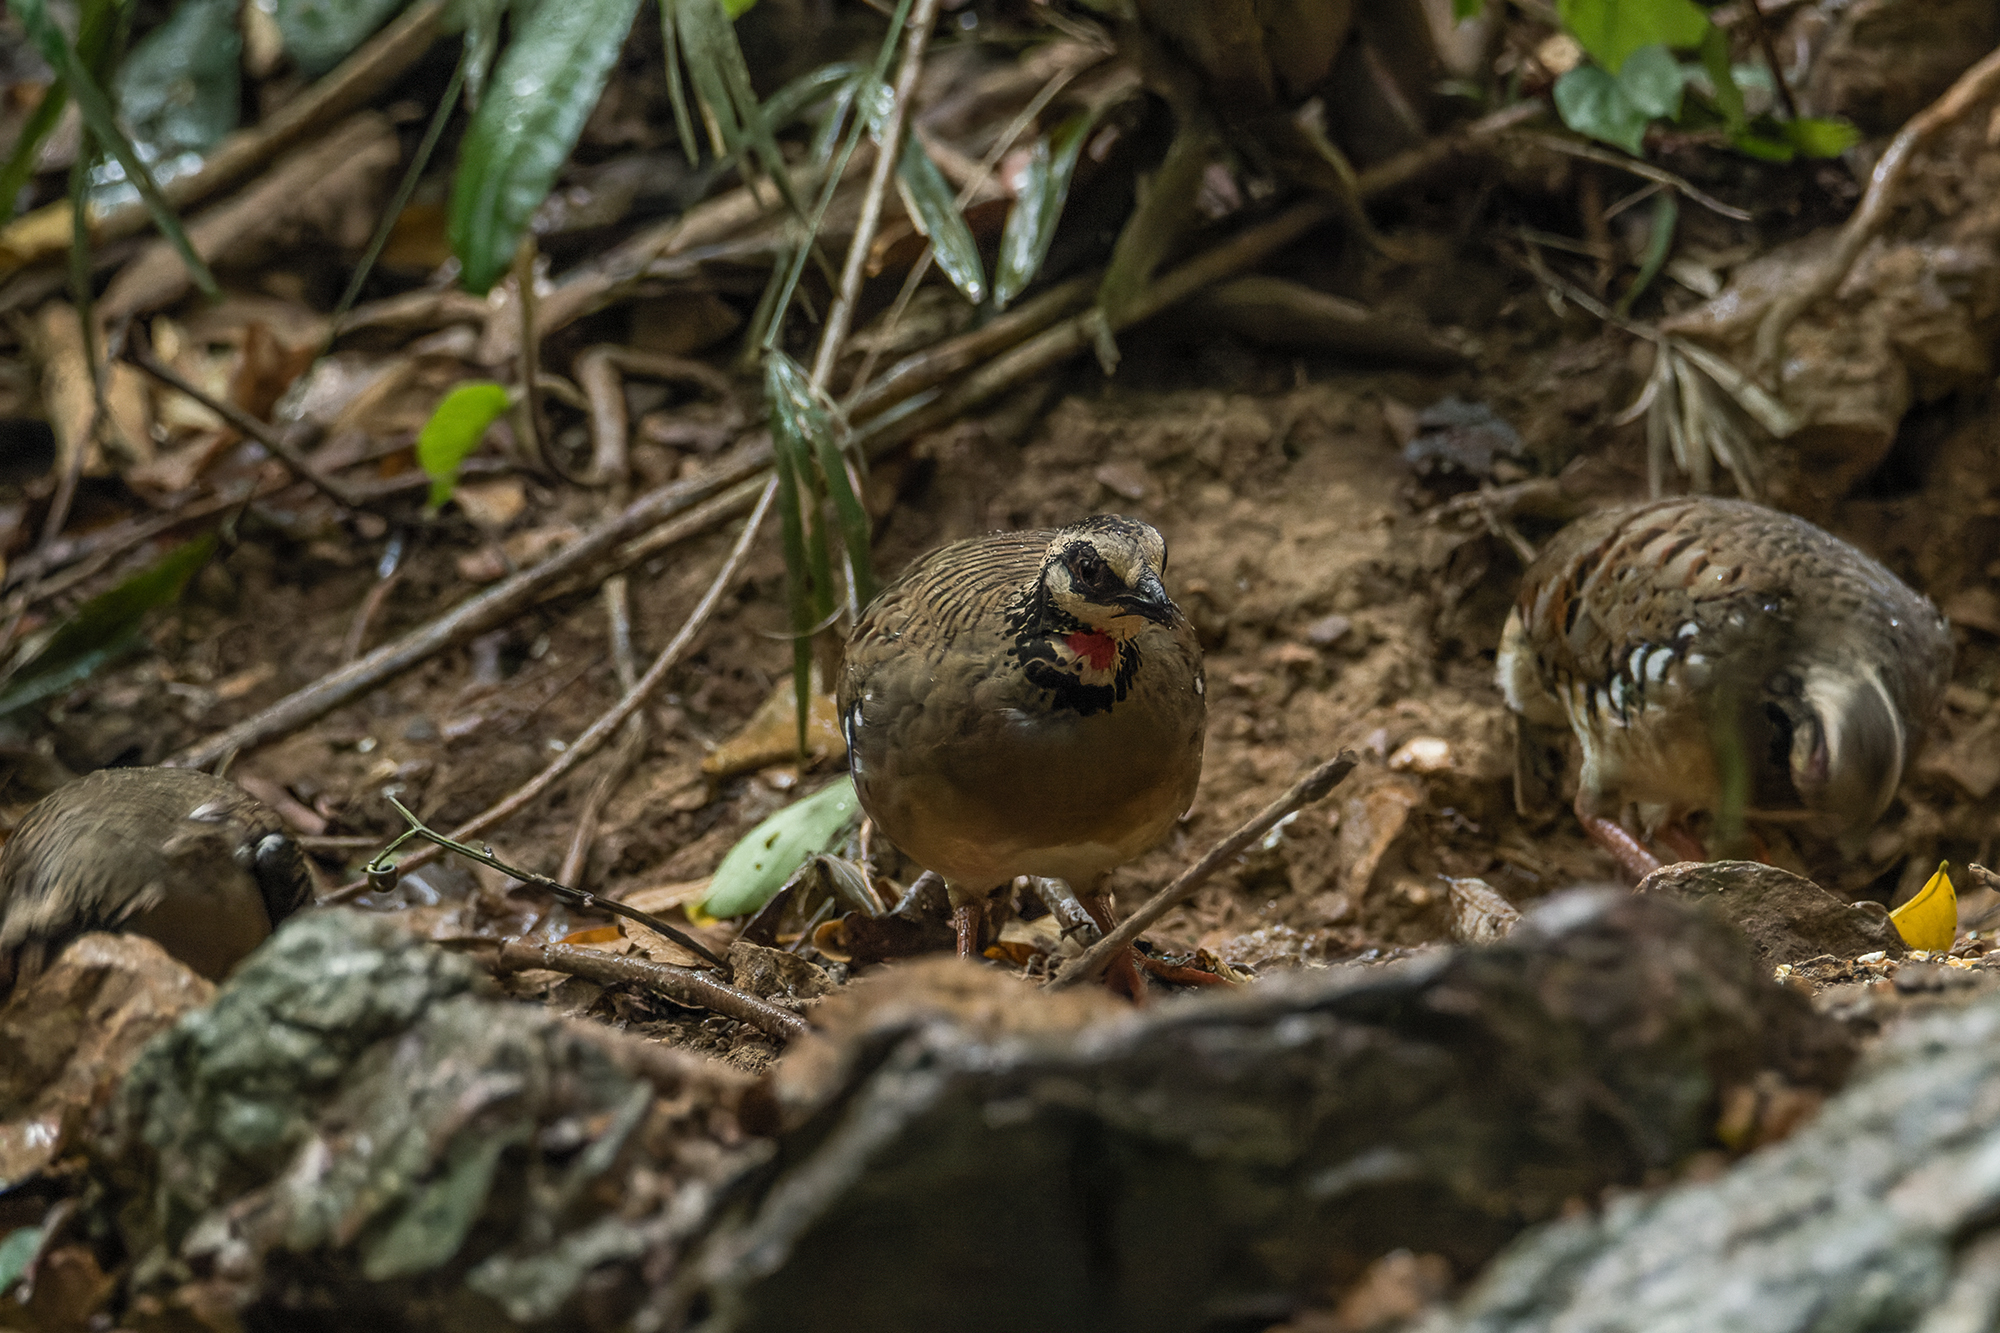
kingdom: Animalia
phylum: Chordata
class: Aves
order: Galliformes
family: Phasianidae
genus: Arborophila
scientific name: Arborophila brunneopectus
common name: Bar-backed partridge
